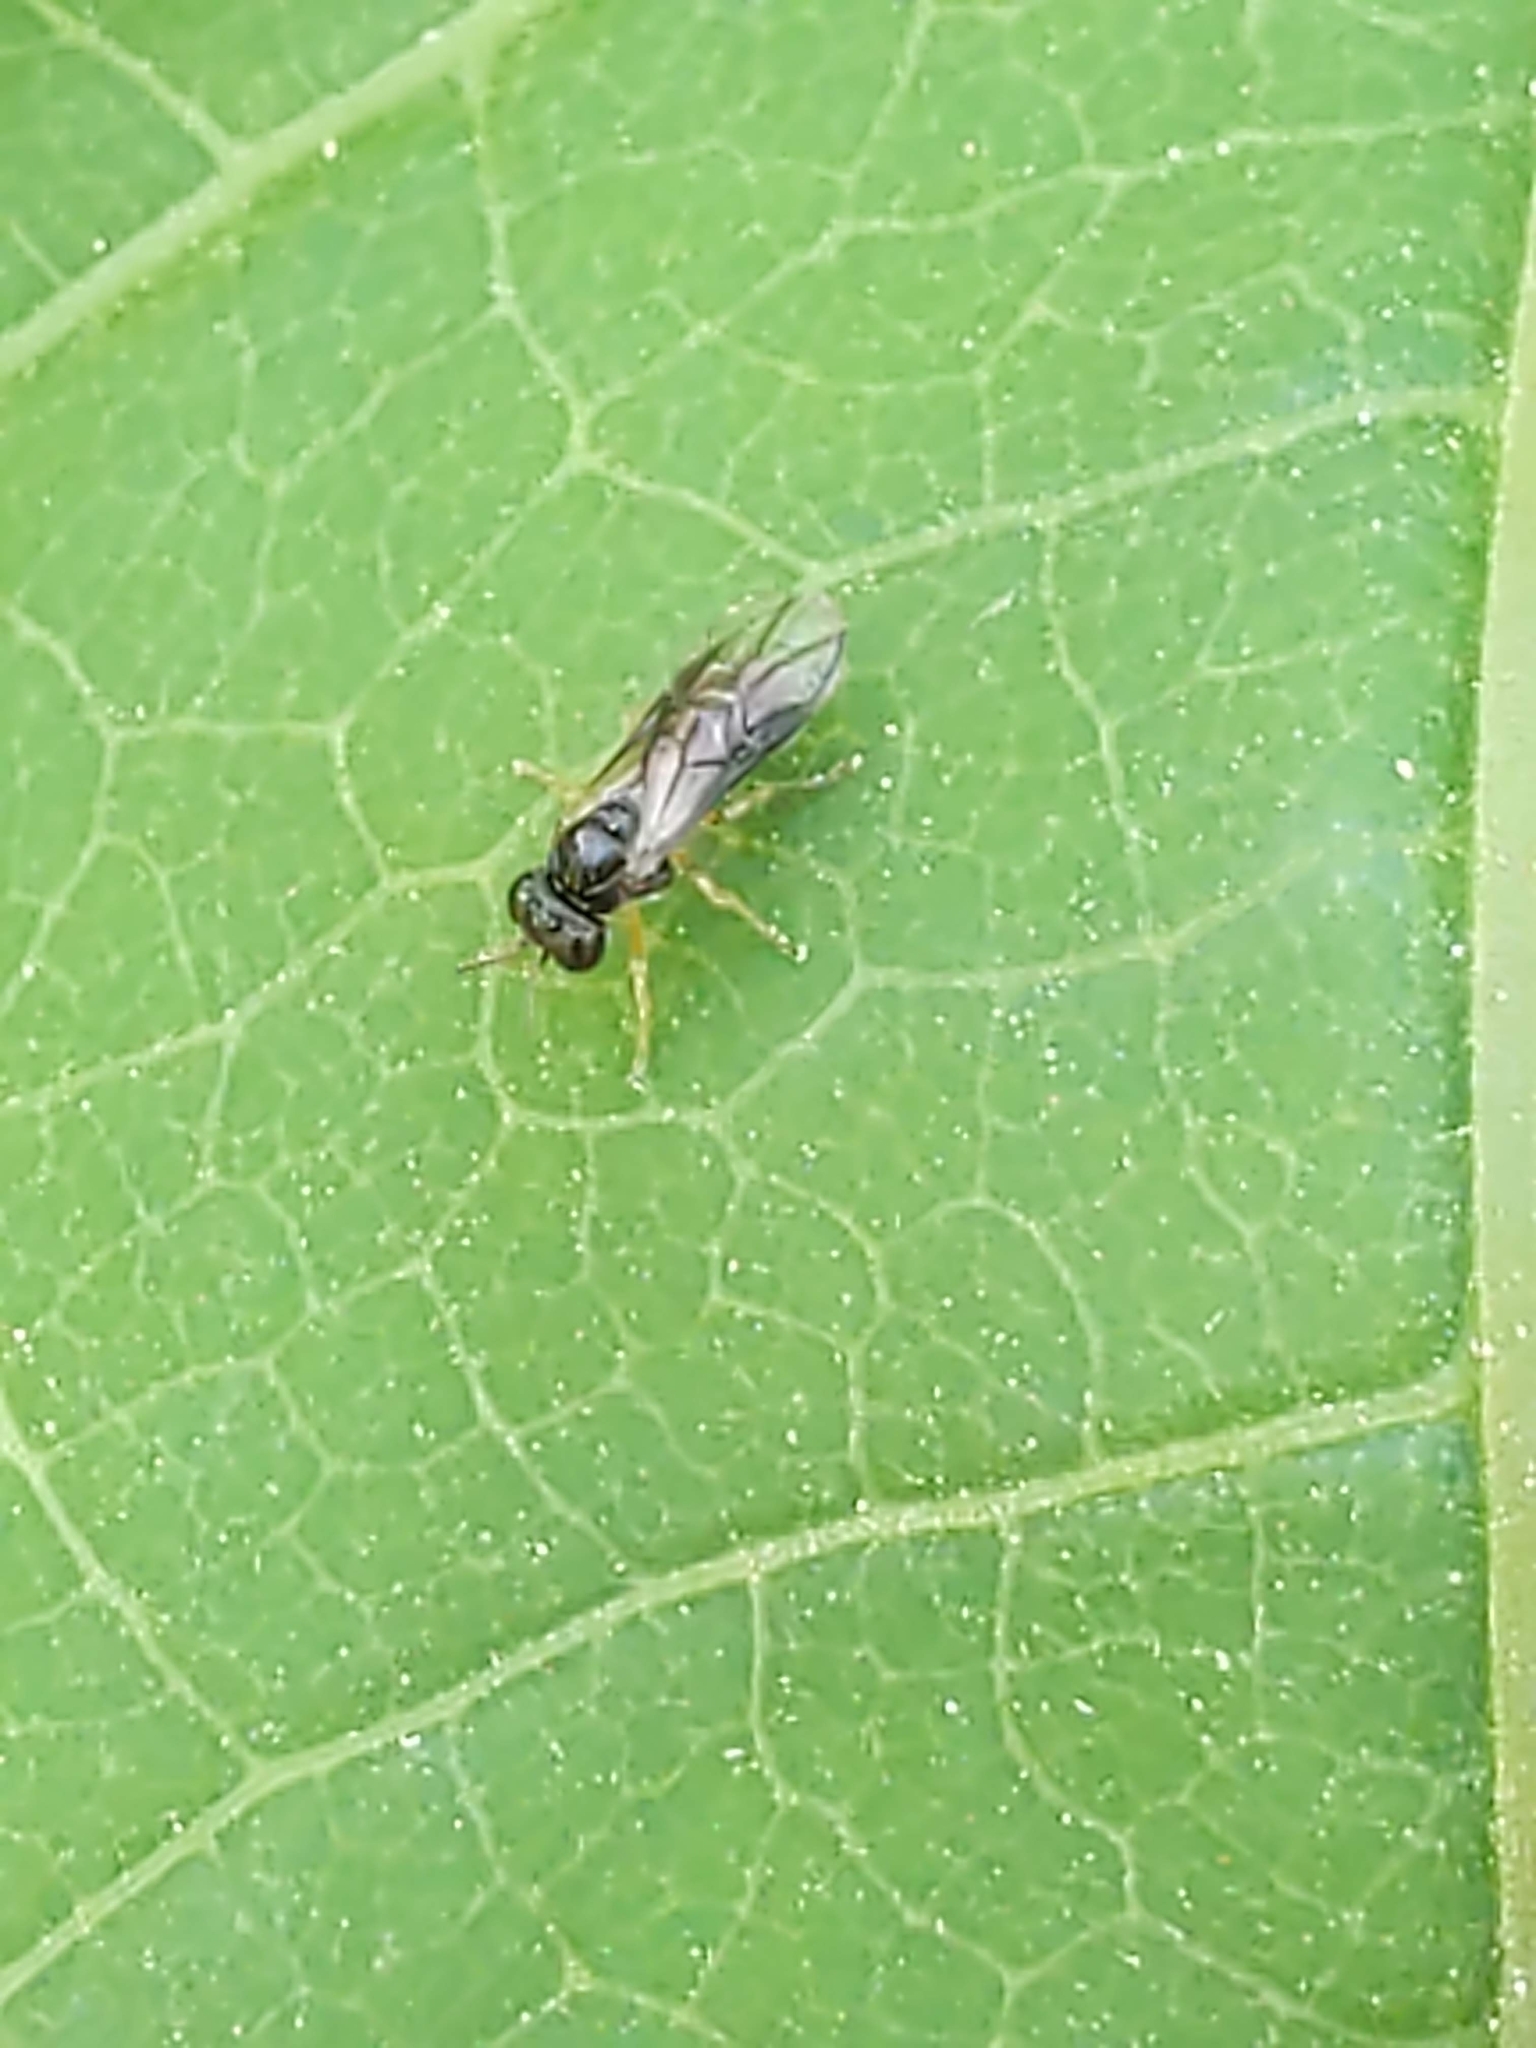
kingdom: Animalia
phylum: Arthropoda
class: Insecta
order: Hymenoptera
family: Pergidae
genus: Acordulecera
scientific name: Acordulecera
